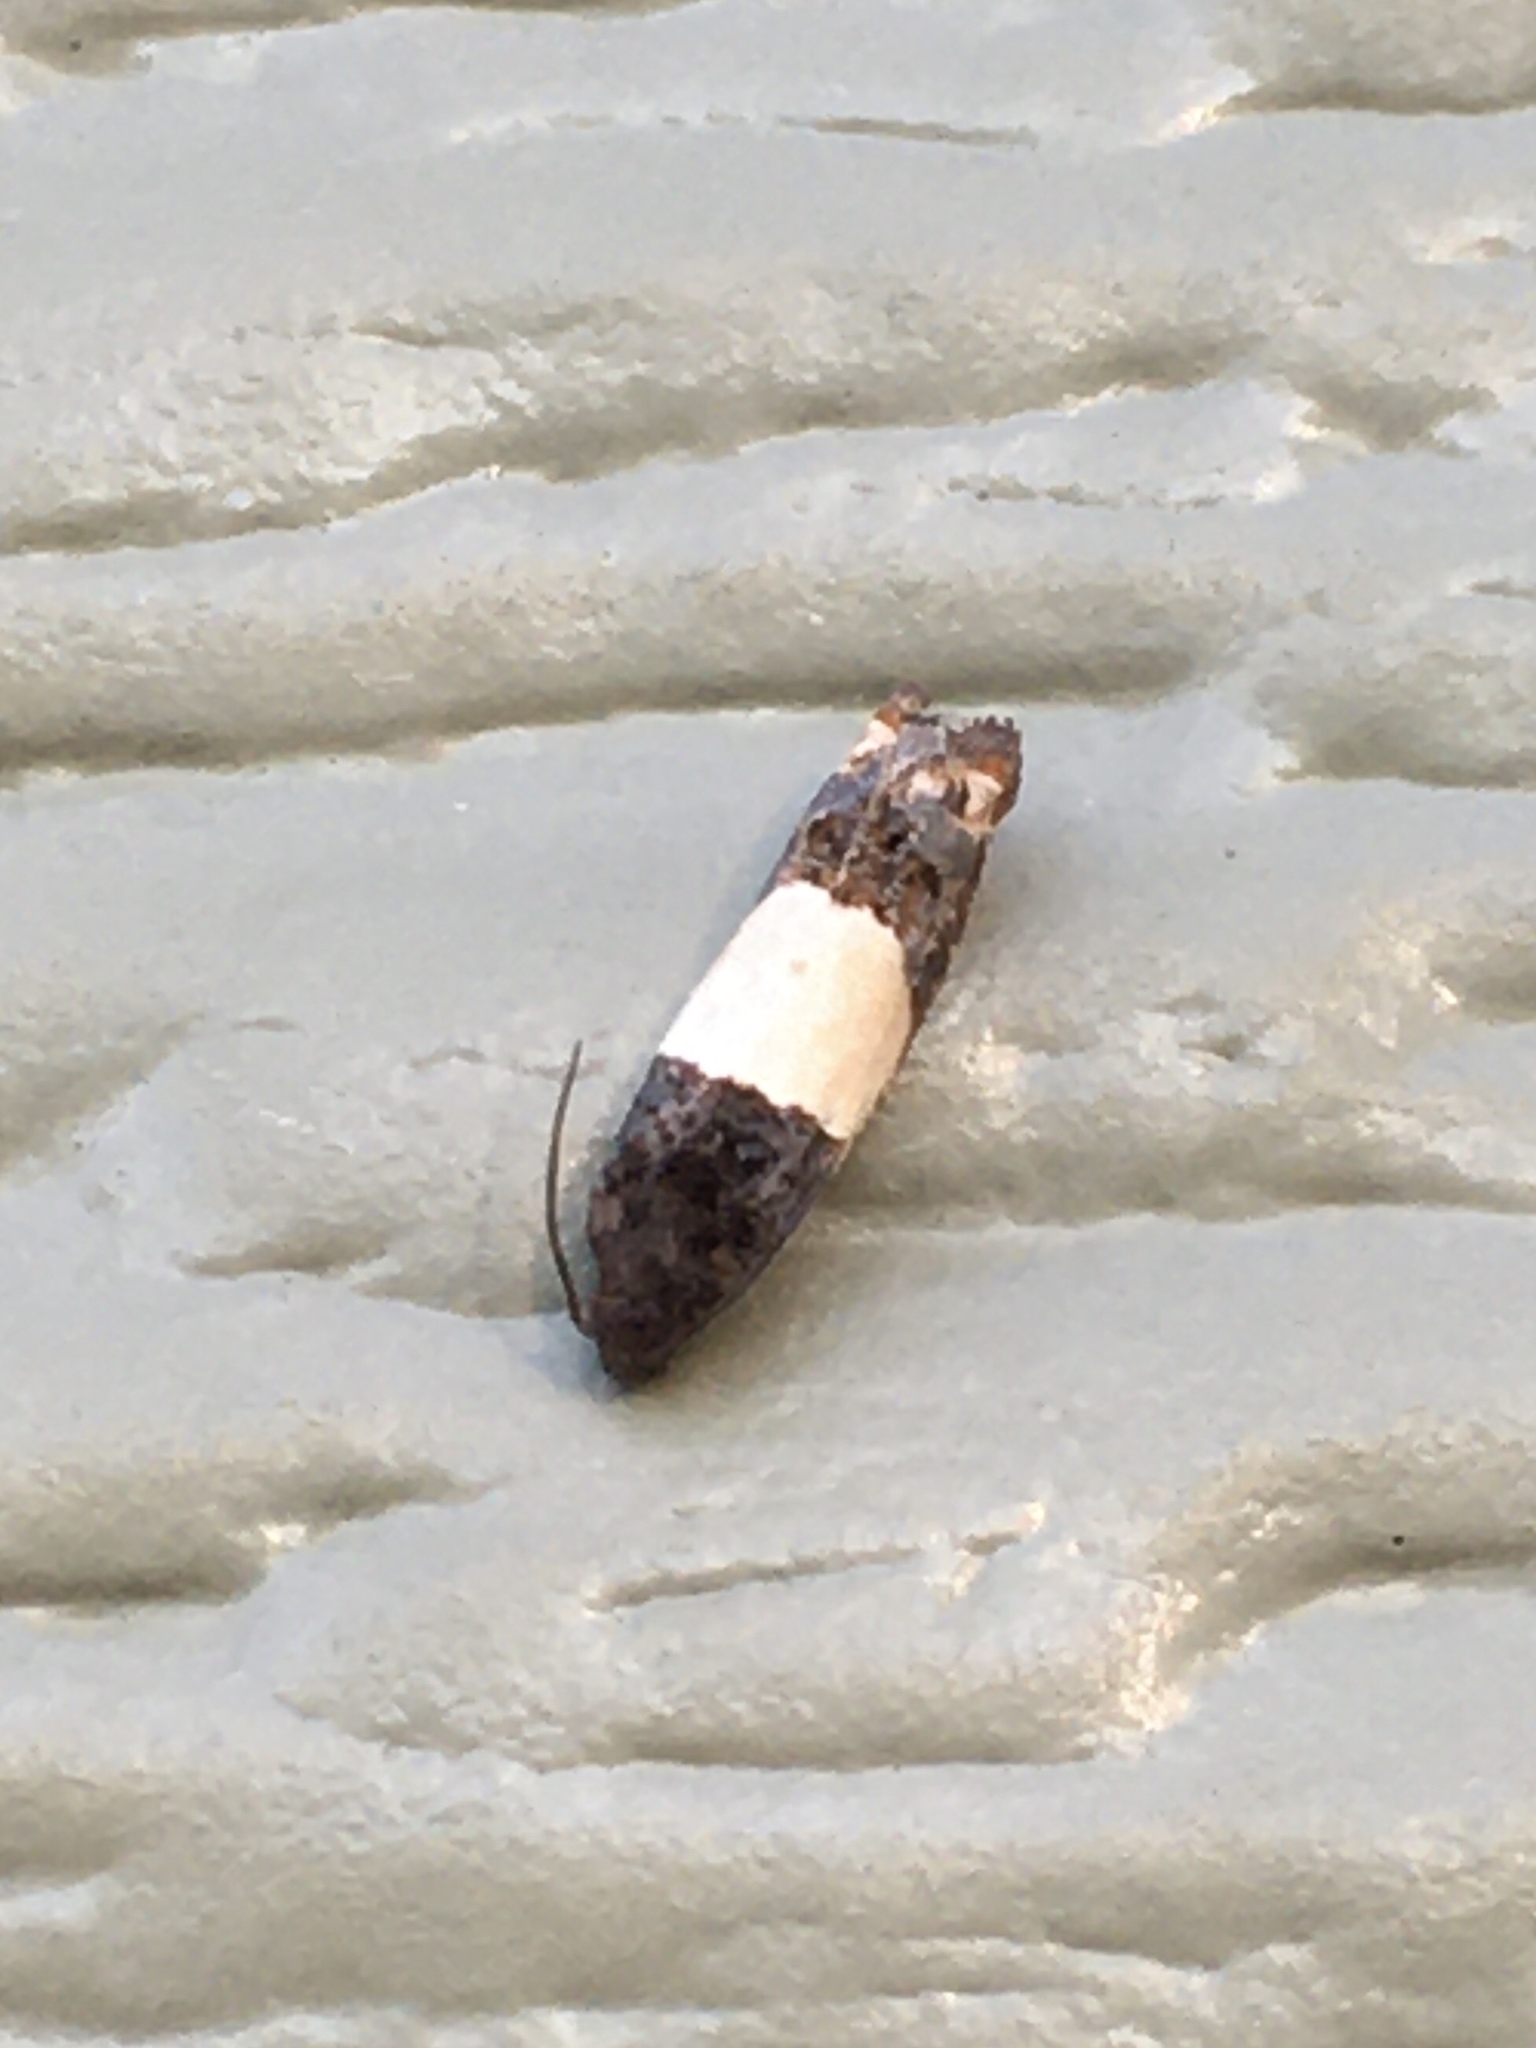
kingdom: Animalia
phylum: Arthropoda
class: Insecta
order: Lepidoptera
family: Tortricidae
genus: Epiblema
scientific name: Epiblema tripartitana
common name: Three-parted epiblema moth
